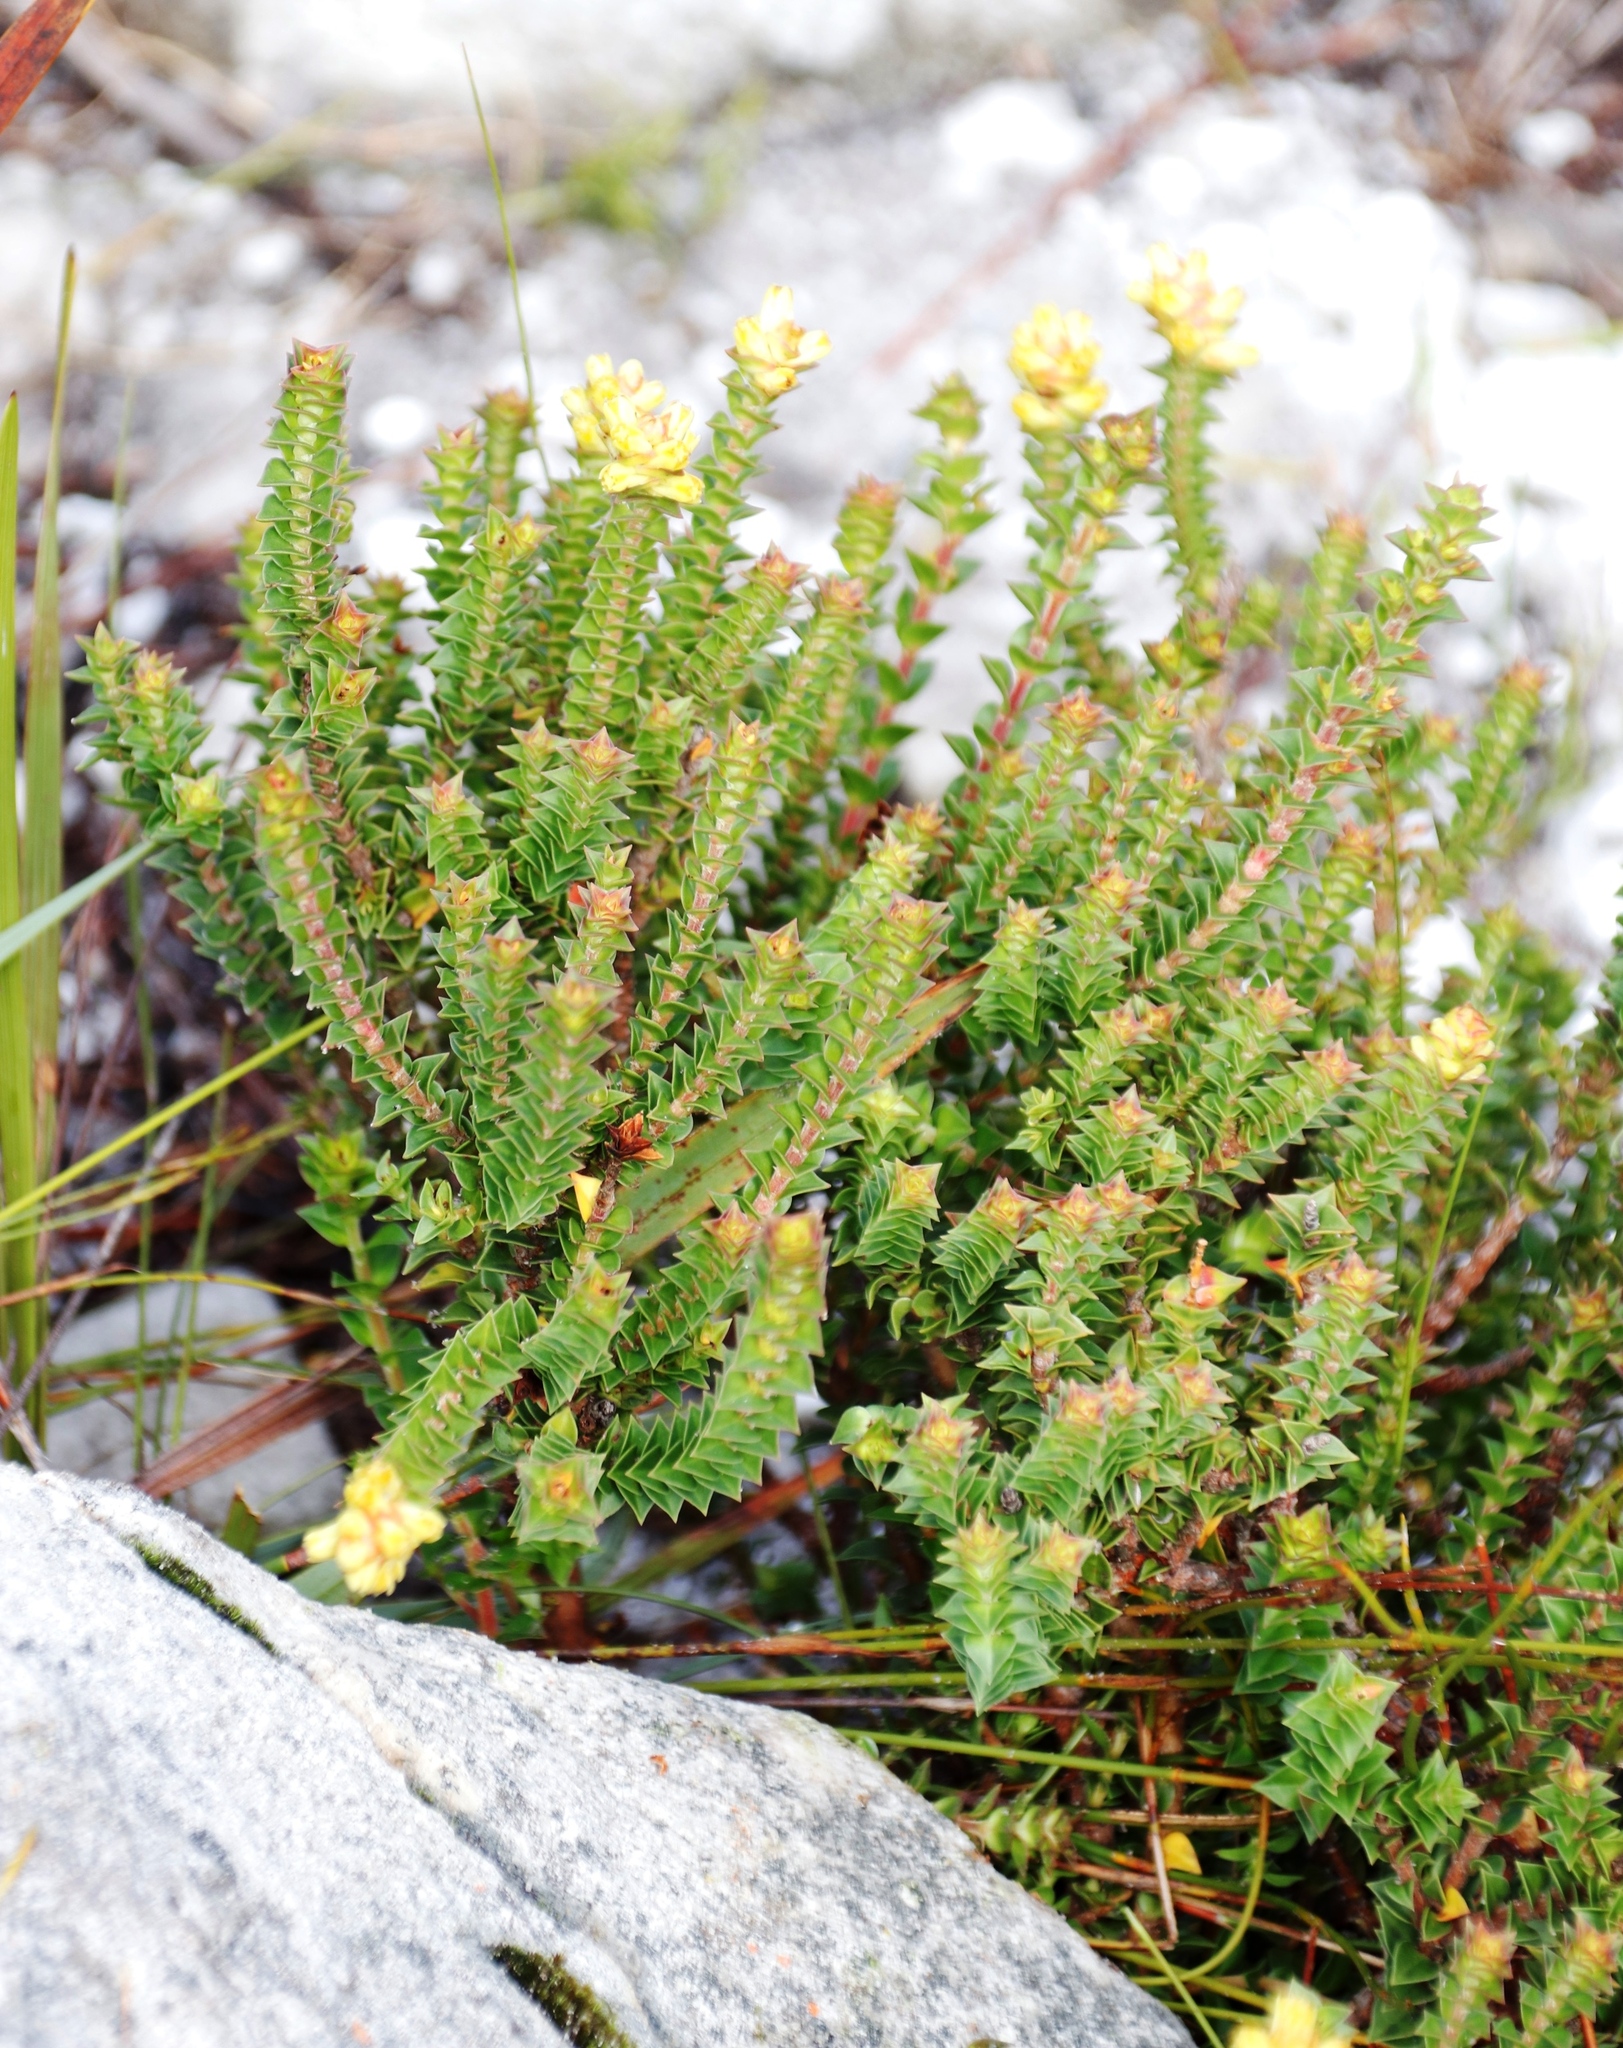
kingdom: Plantae
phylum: Tracheophyta
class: Magnoliopsida
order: Myrtales
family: Penaeaceae
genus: Penaea
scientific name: Penaea mucronata
